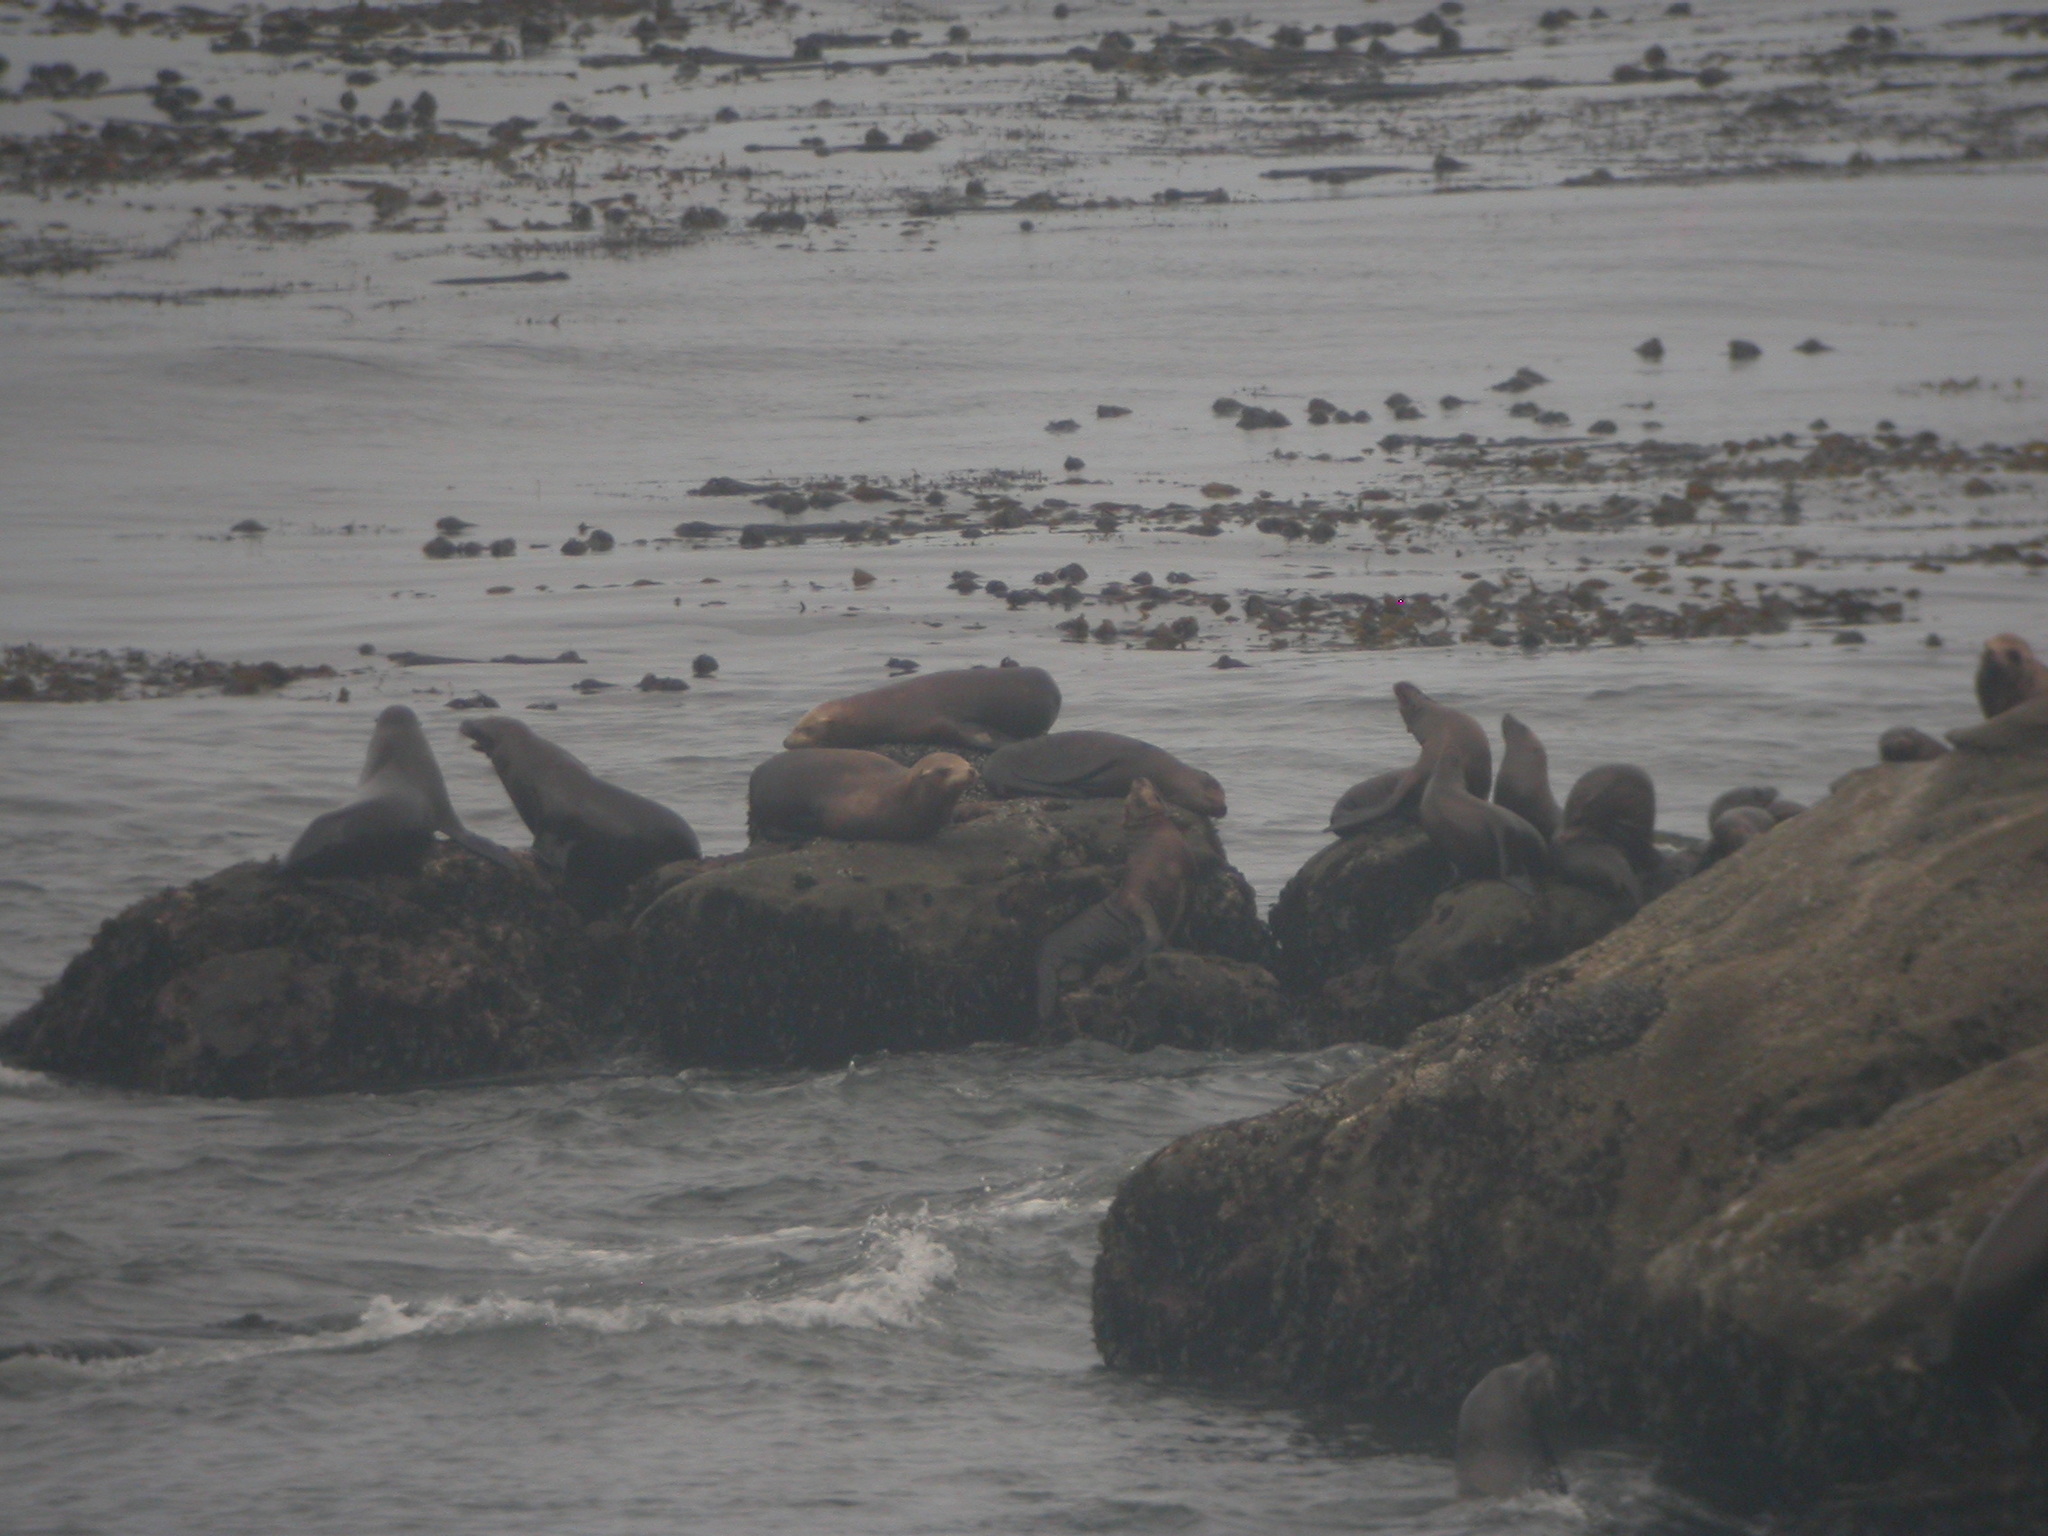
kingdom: Animalia
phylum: Chordata
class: Mammalia
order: Carnivora
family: Otariidae
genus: Zalophus
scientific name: Zalophus californianus
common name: California sea lion
